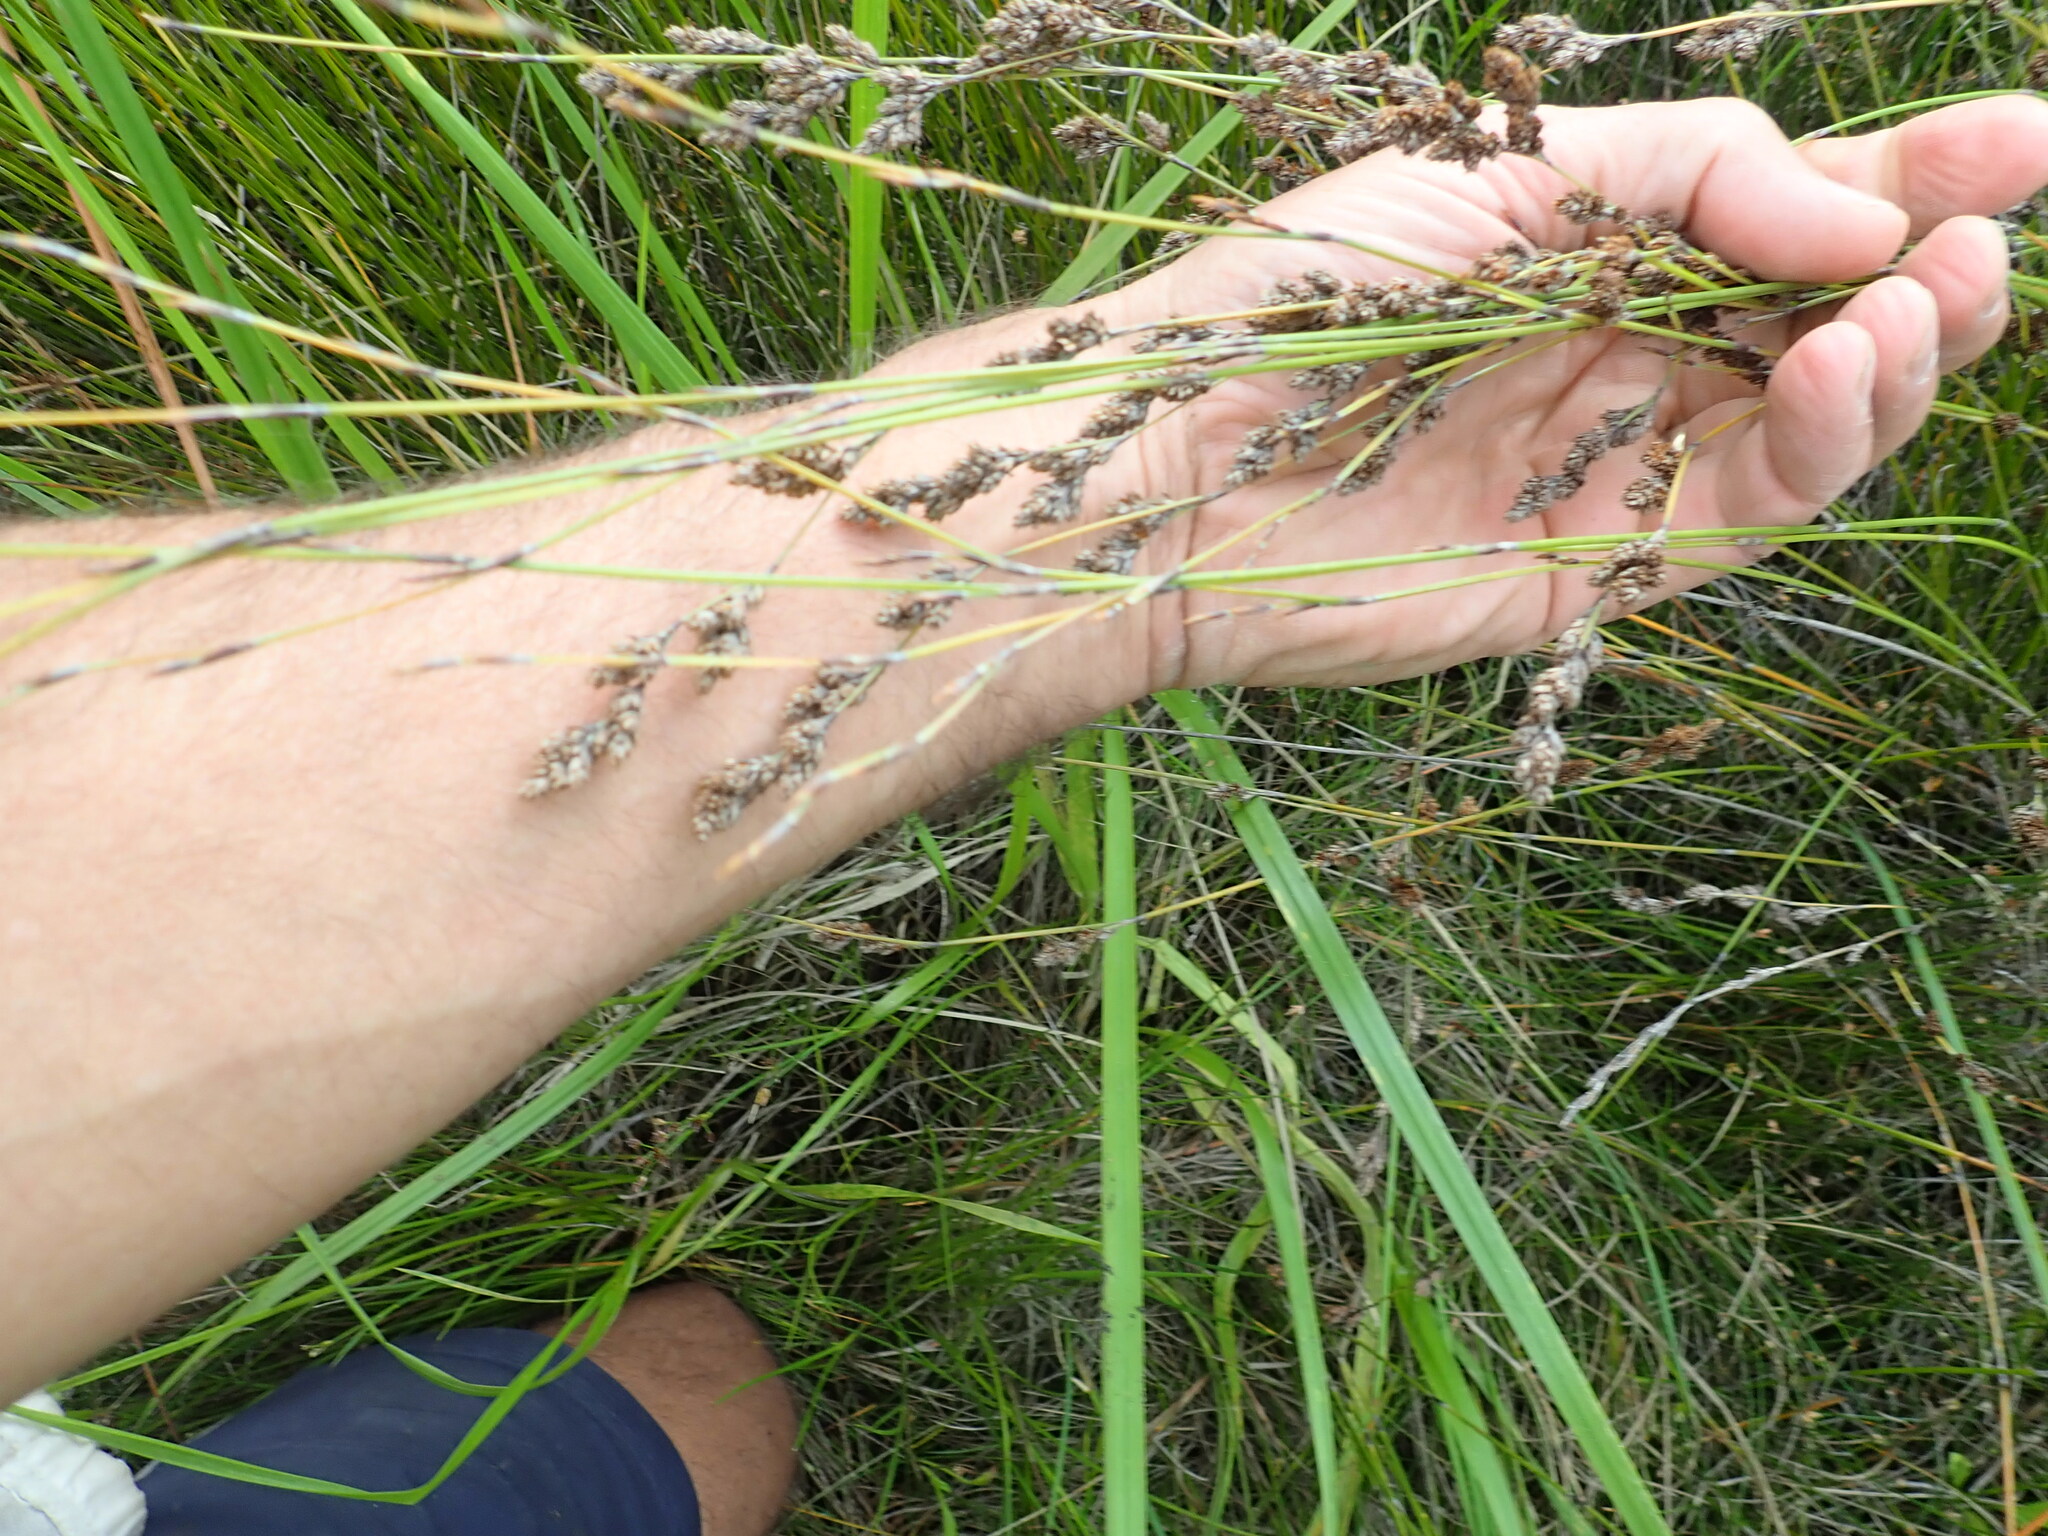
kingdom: Plantae
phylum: Tracheophyta
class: Liliopsida
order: Poales
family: Restionaceae
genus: Apodasmia
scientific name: Apodasmia similis
